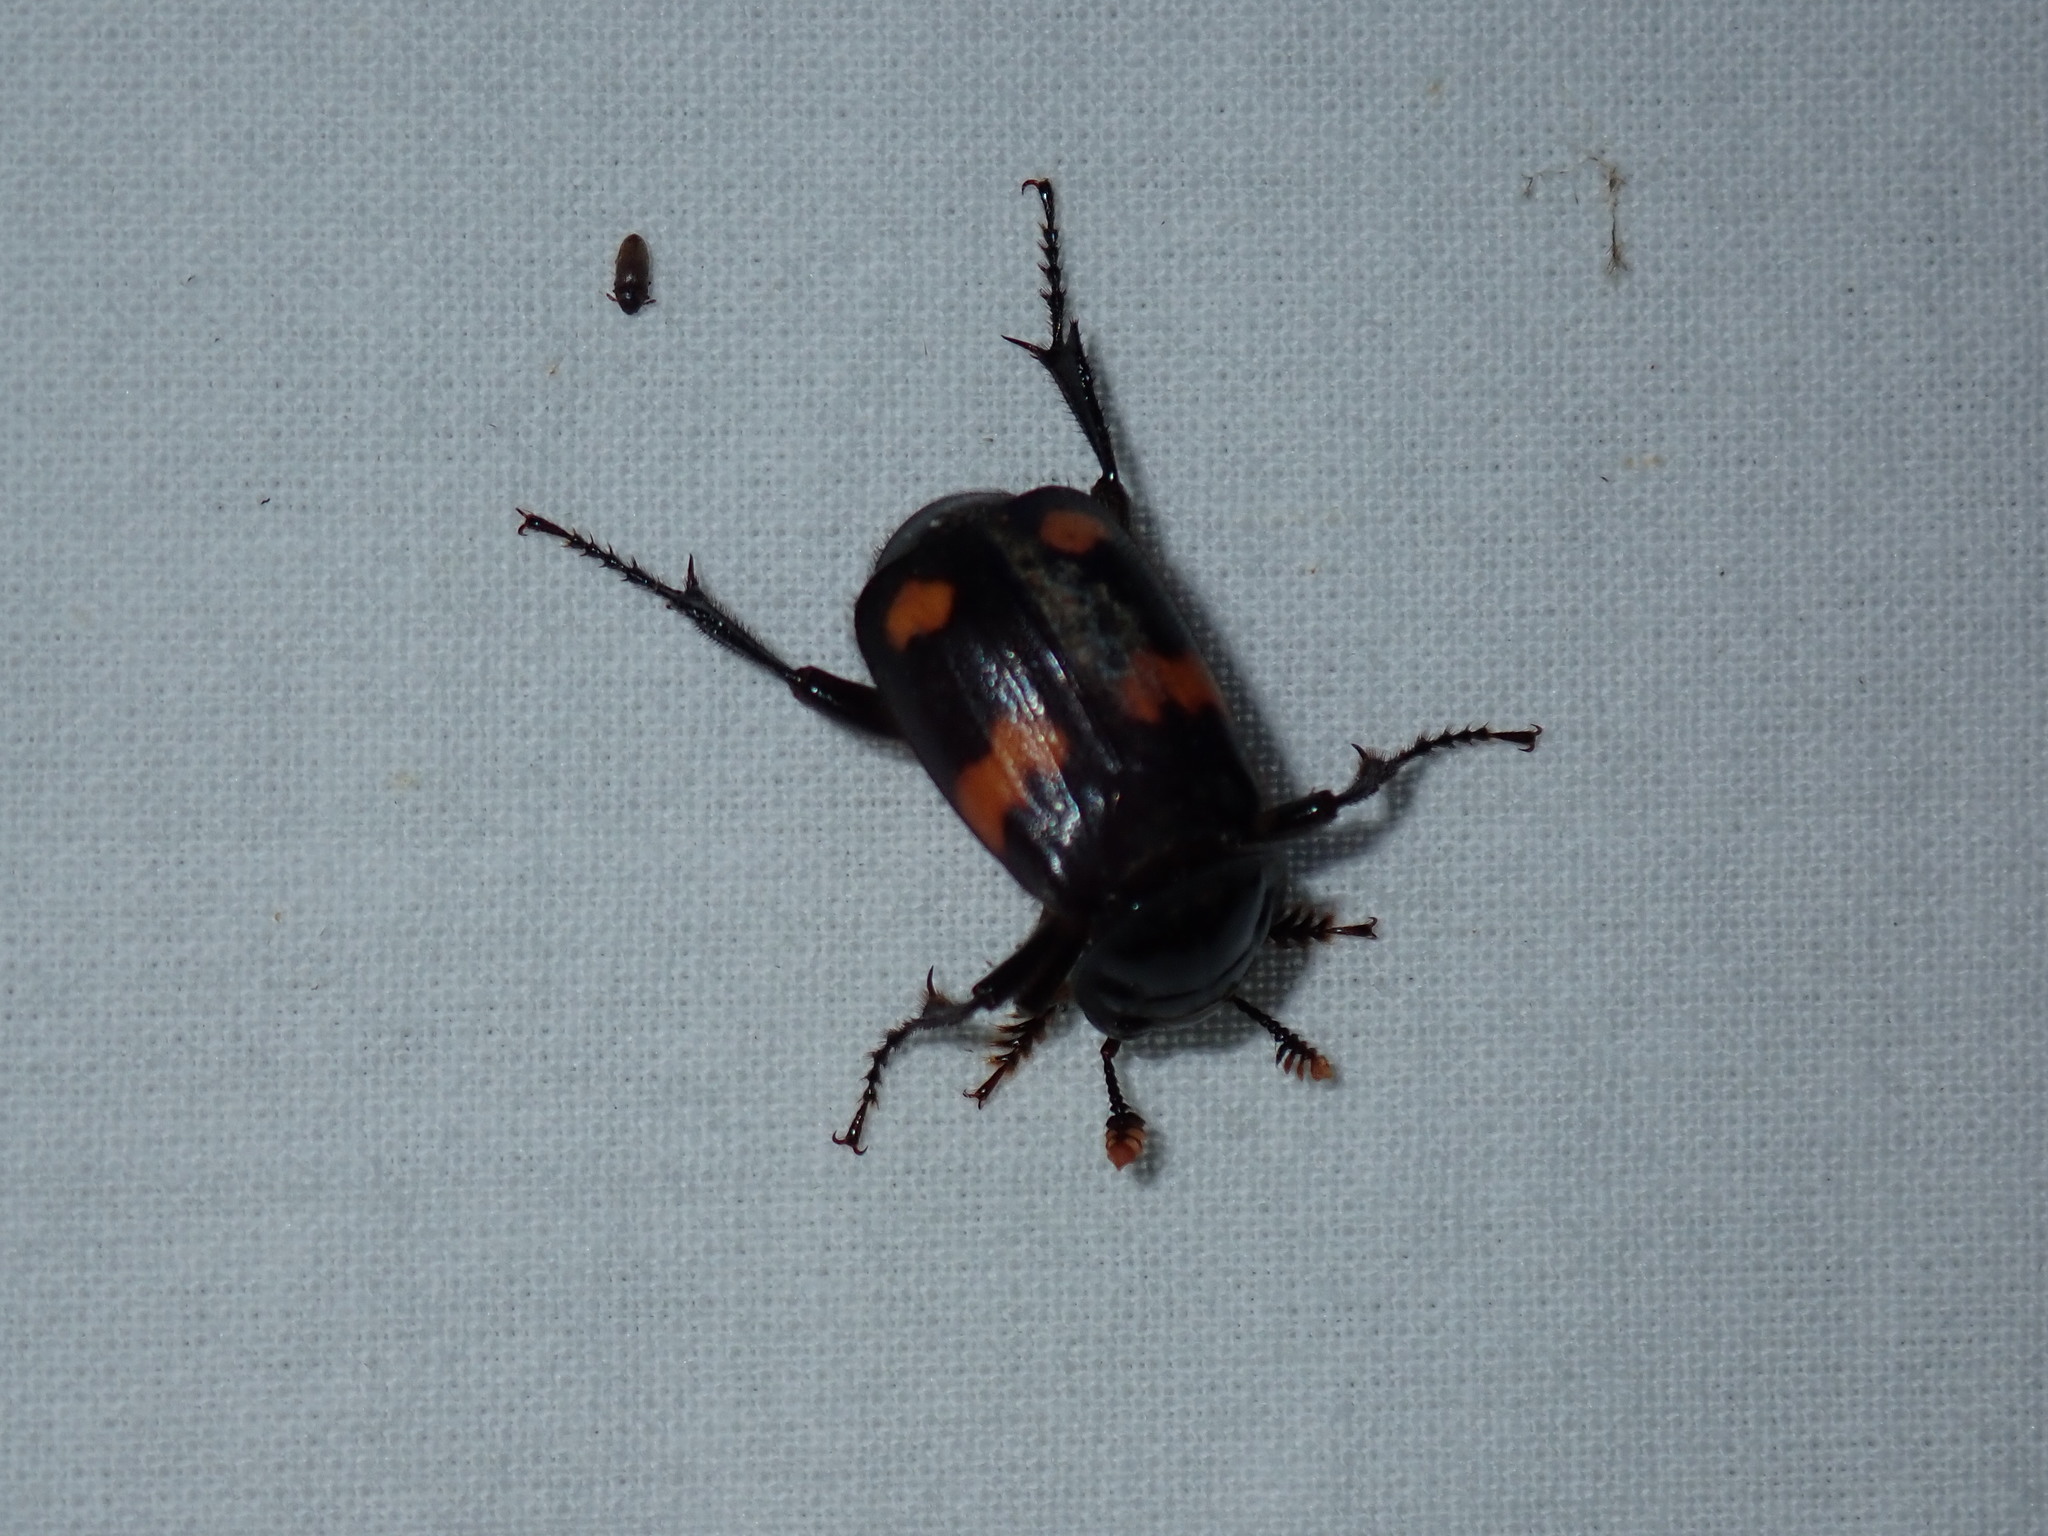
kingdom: Animalia
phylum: Arthropoda
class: Insecta
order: Coleoptera
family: Staphylinidae
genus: Nicrophorus
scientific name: Nicrophorus orbicollis
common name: Roundneck sexton beetle
